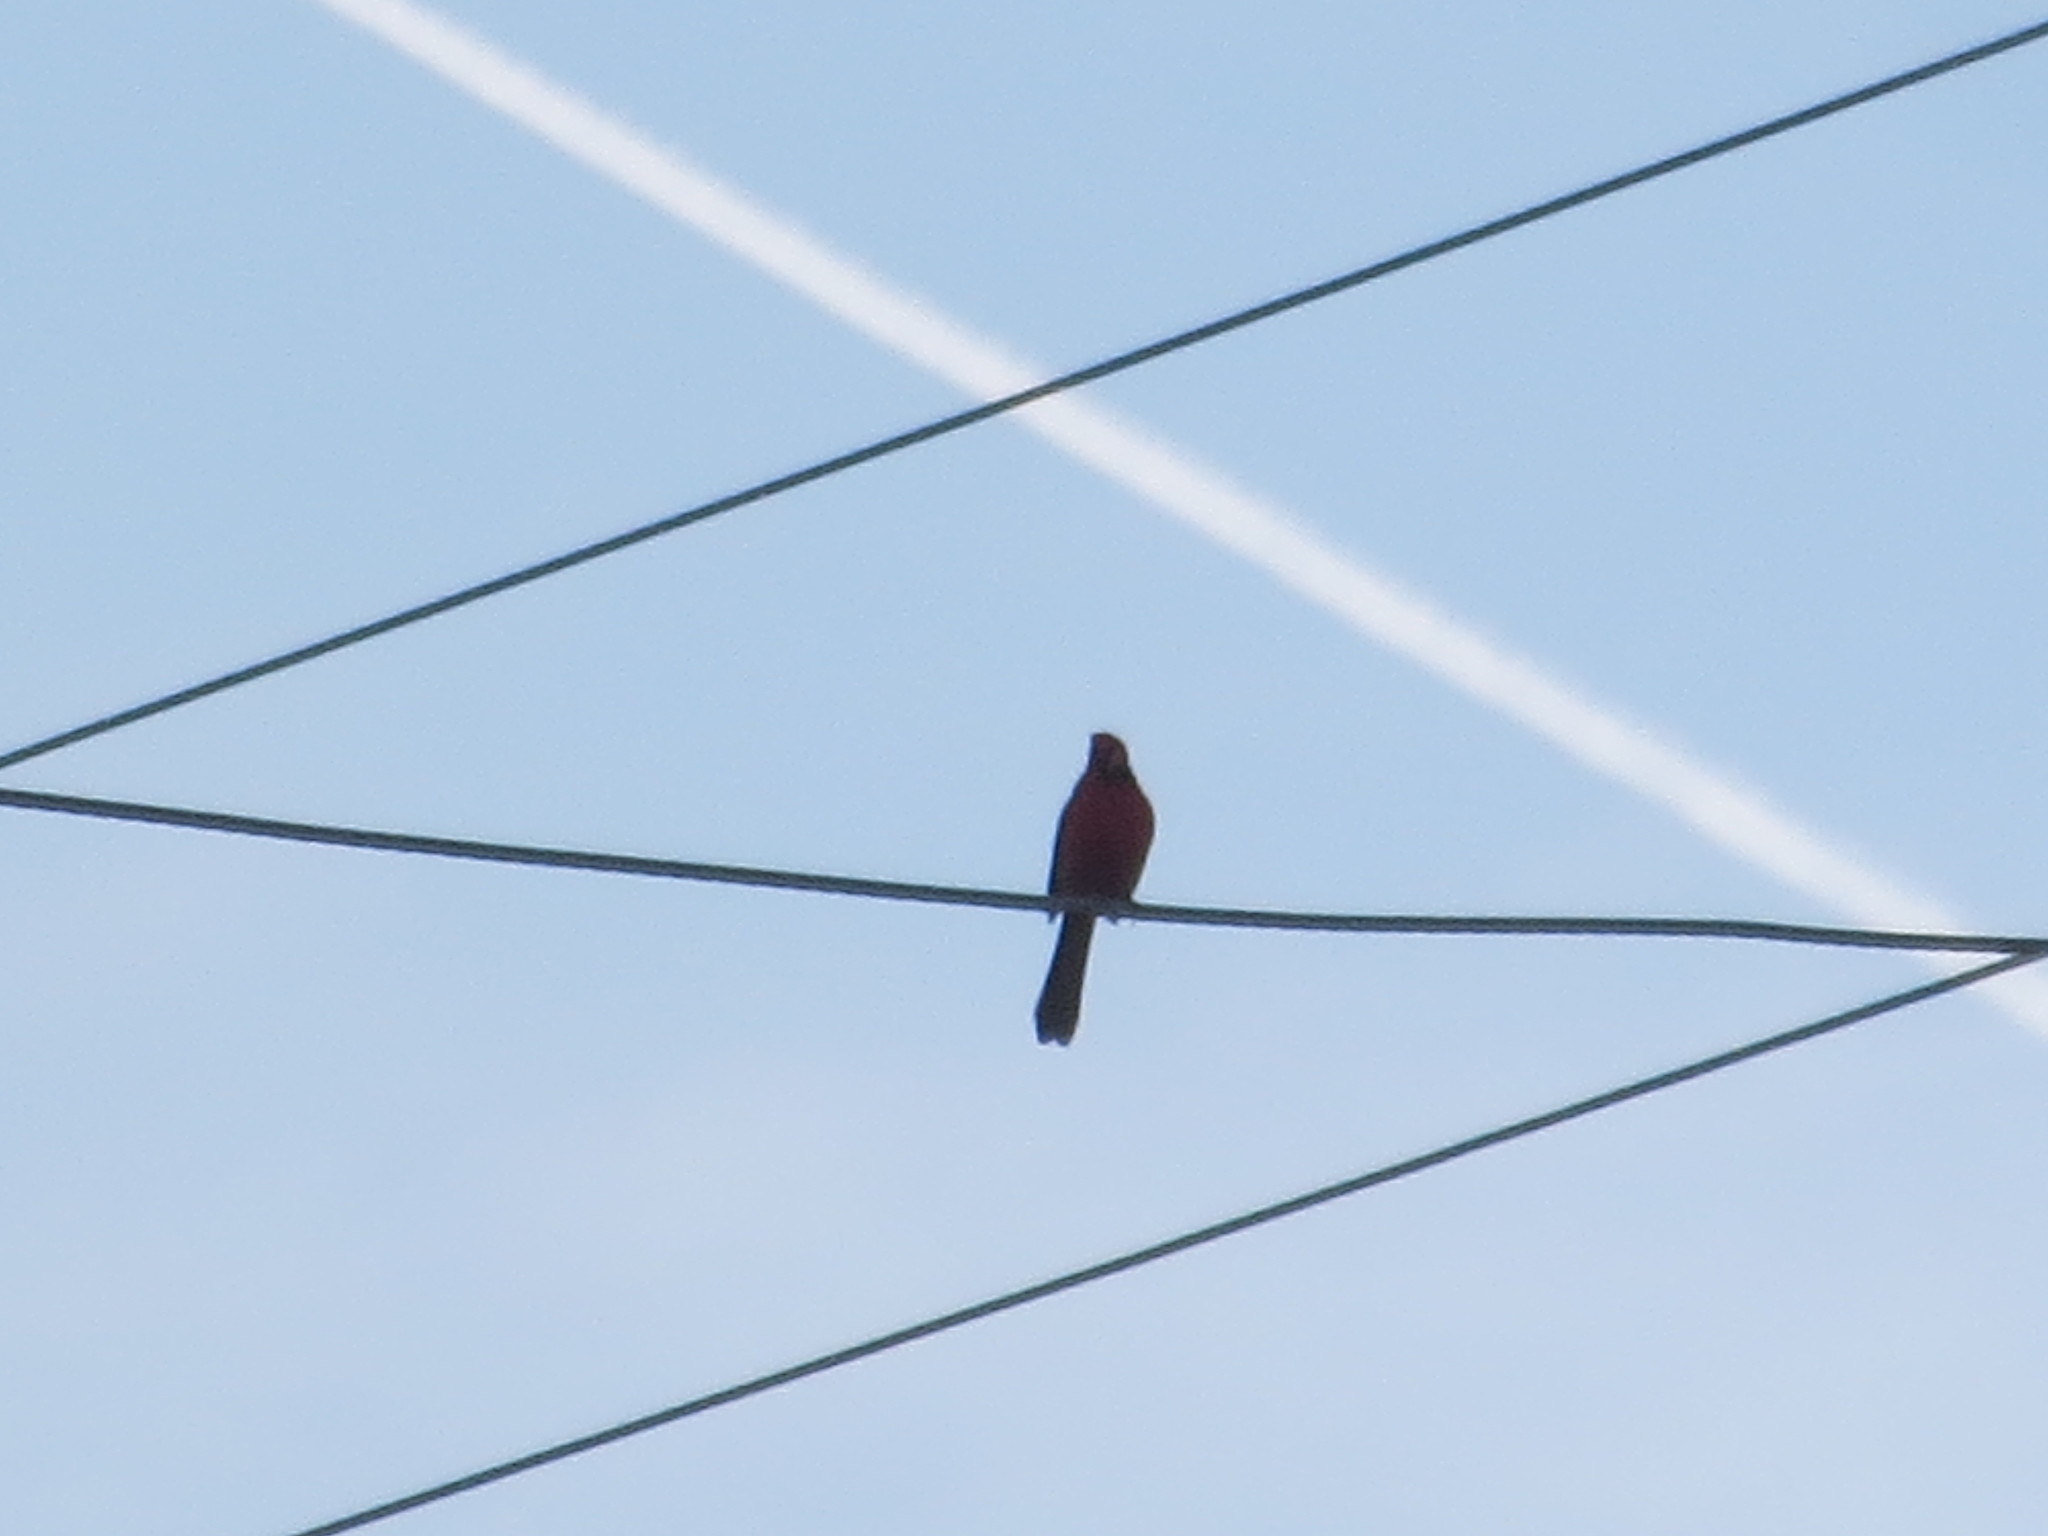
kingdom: Animalia
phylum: Chordata
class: Aves
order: Passeriformes
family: Cardinalidae
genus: Cardinalis
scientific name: Cardinalis cardinalis
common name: Northern cardinal
